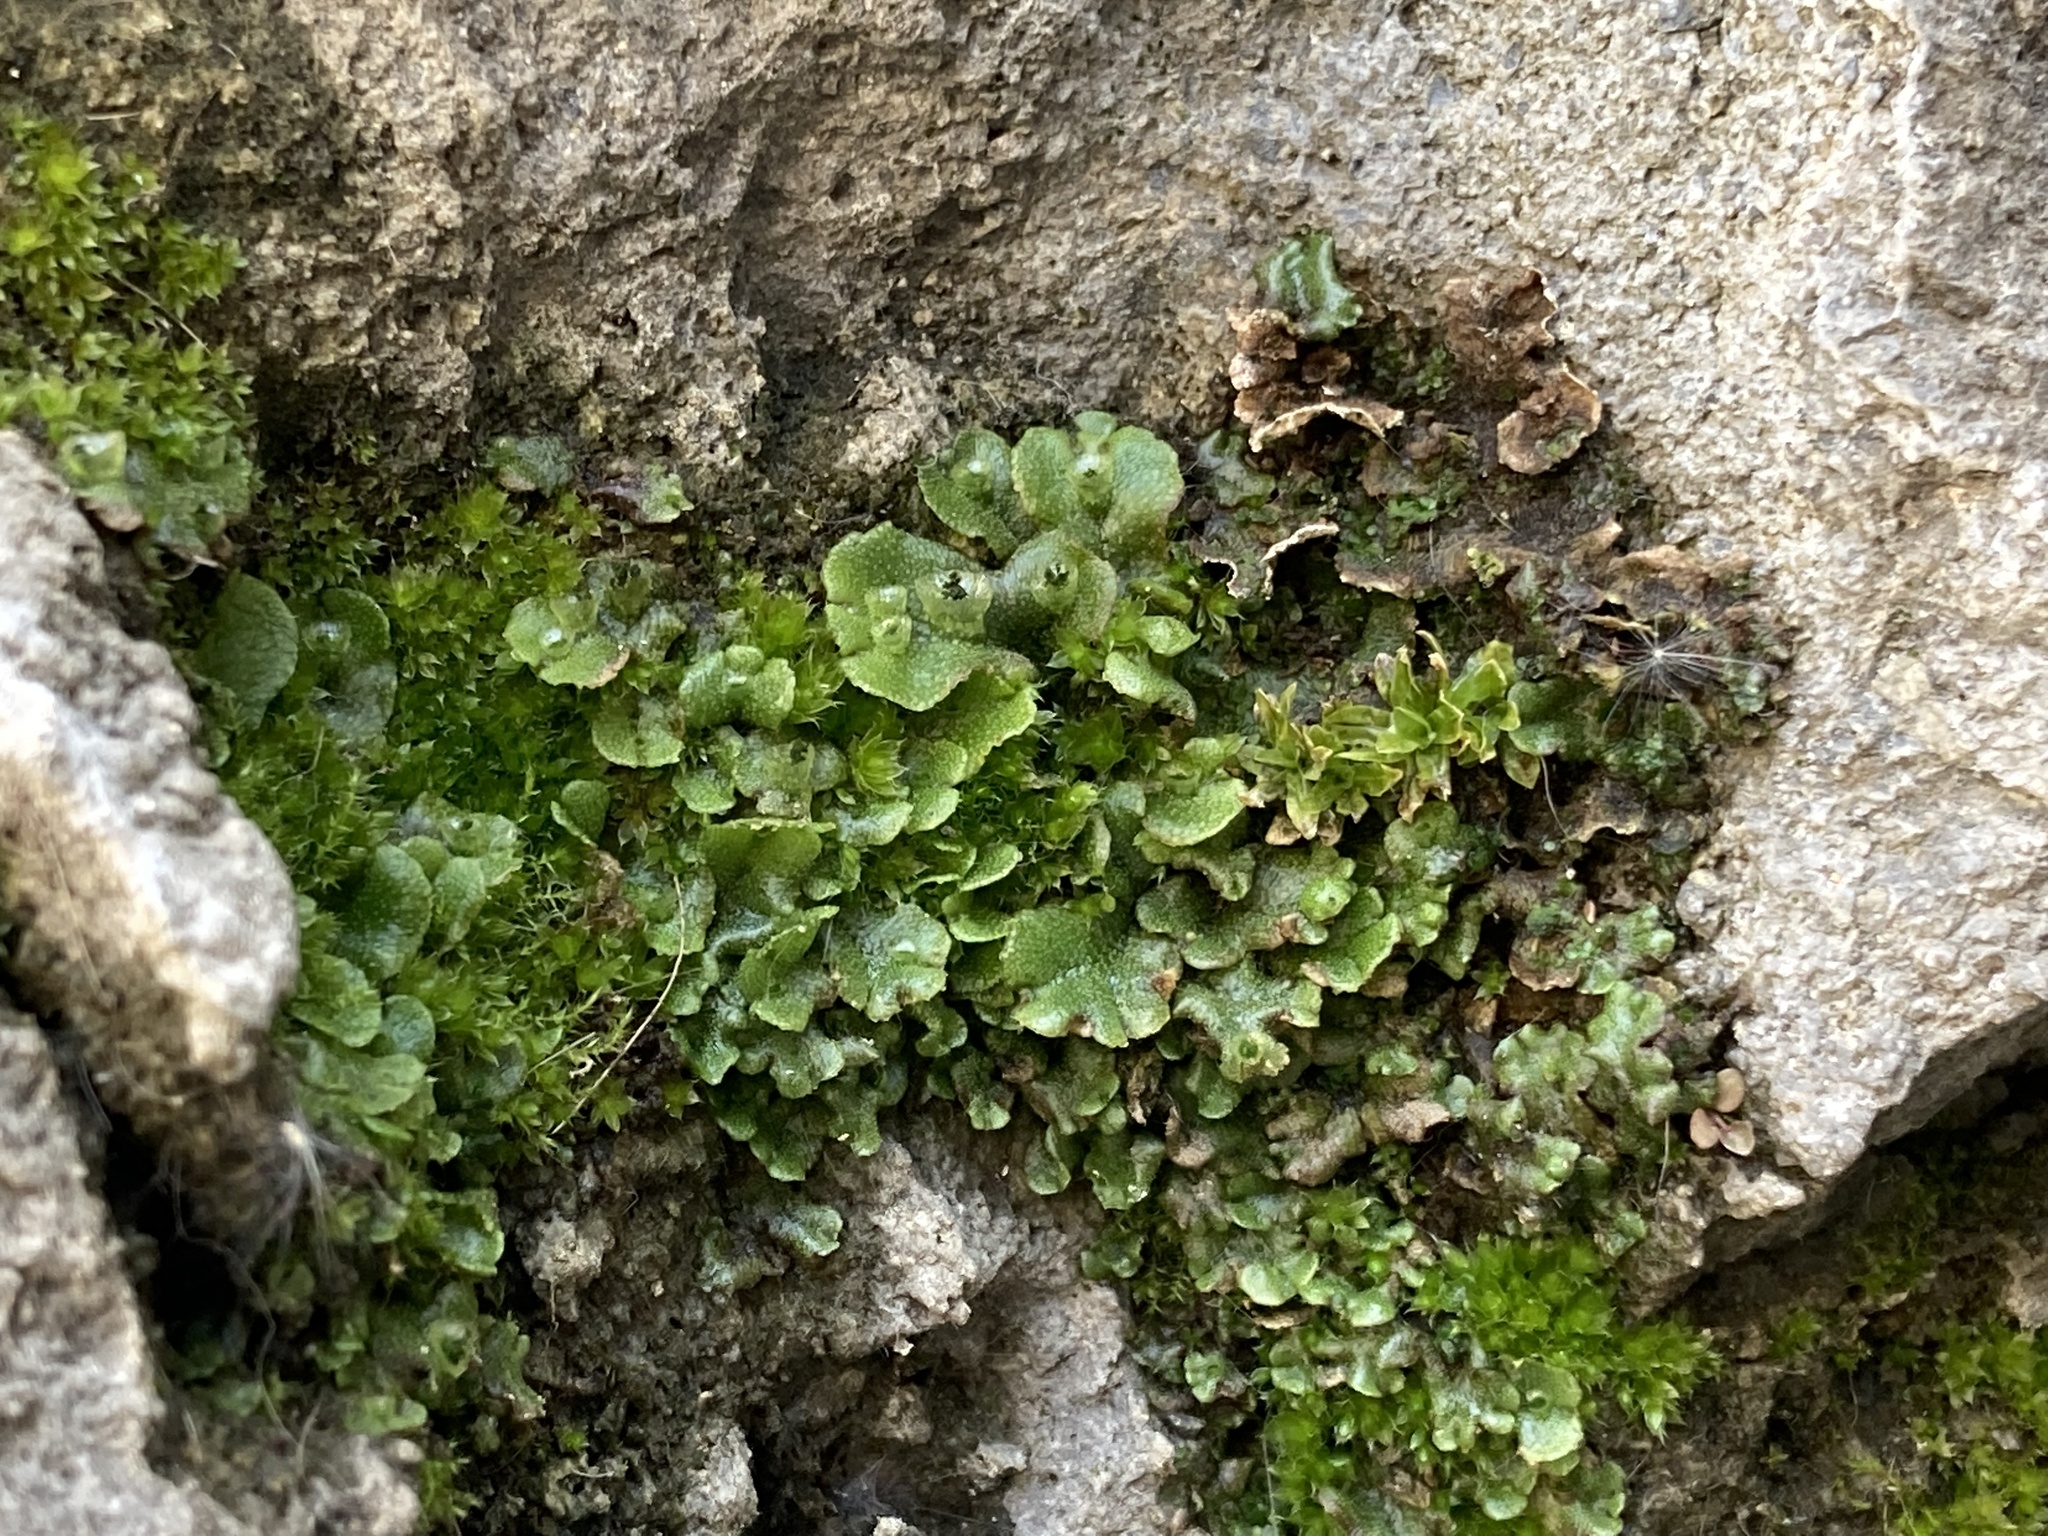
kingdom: Plantae
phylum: Marchantiophyta
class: Marchantiopsida
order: Marchantiales
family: Marchantiaceae
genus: Marchantia
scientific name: Marchantia polymorpha
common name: Common liverwort
